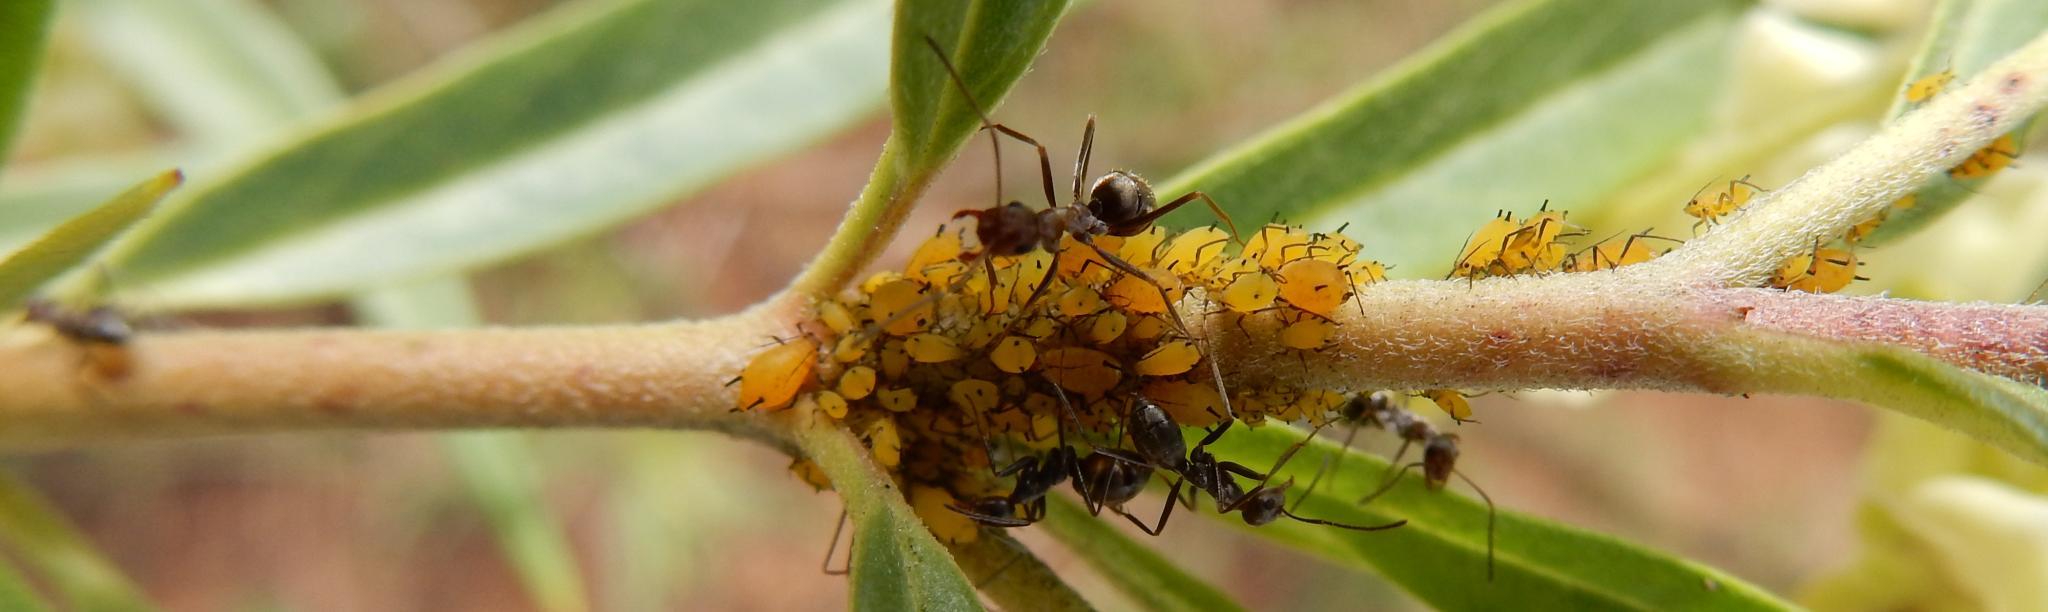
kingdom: Animalia
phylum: Arthropoda
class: Insecta
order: Hemiptera
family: Aphididae
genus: Aphis
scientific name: Aphis nerii
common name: Oleander aphid
